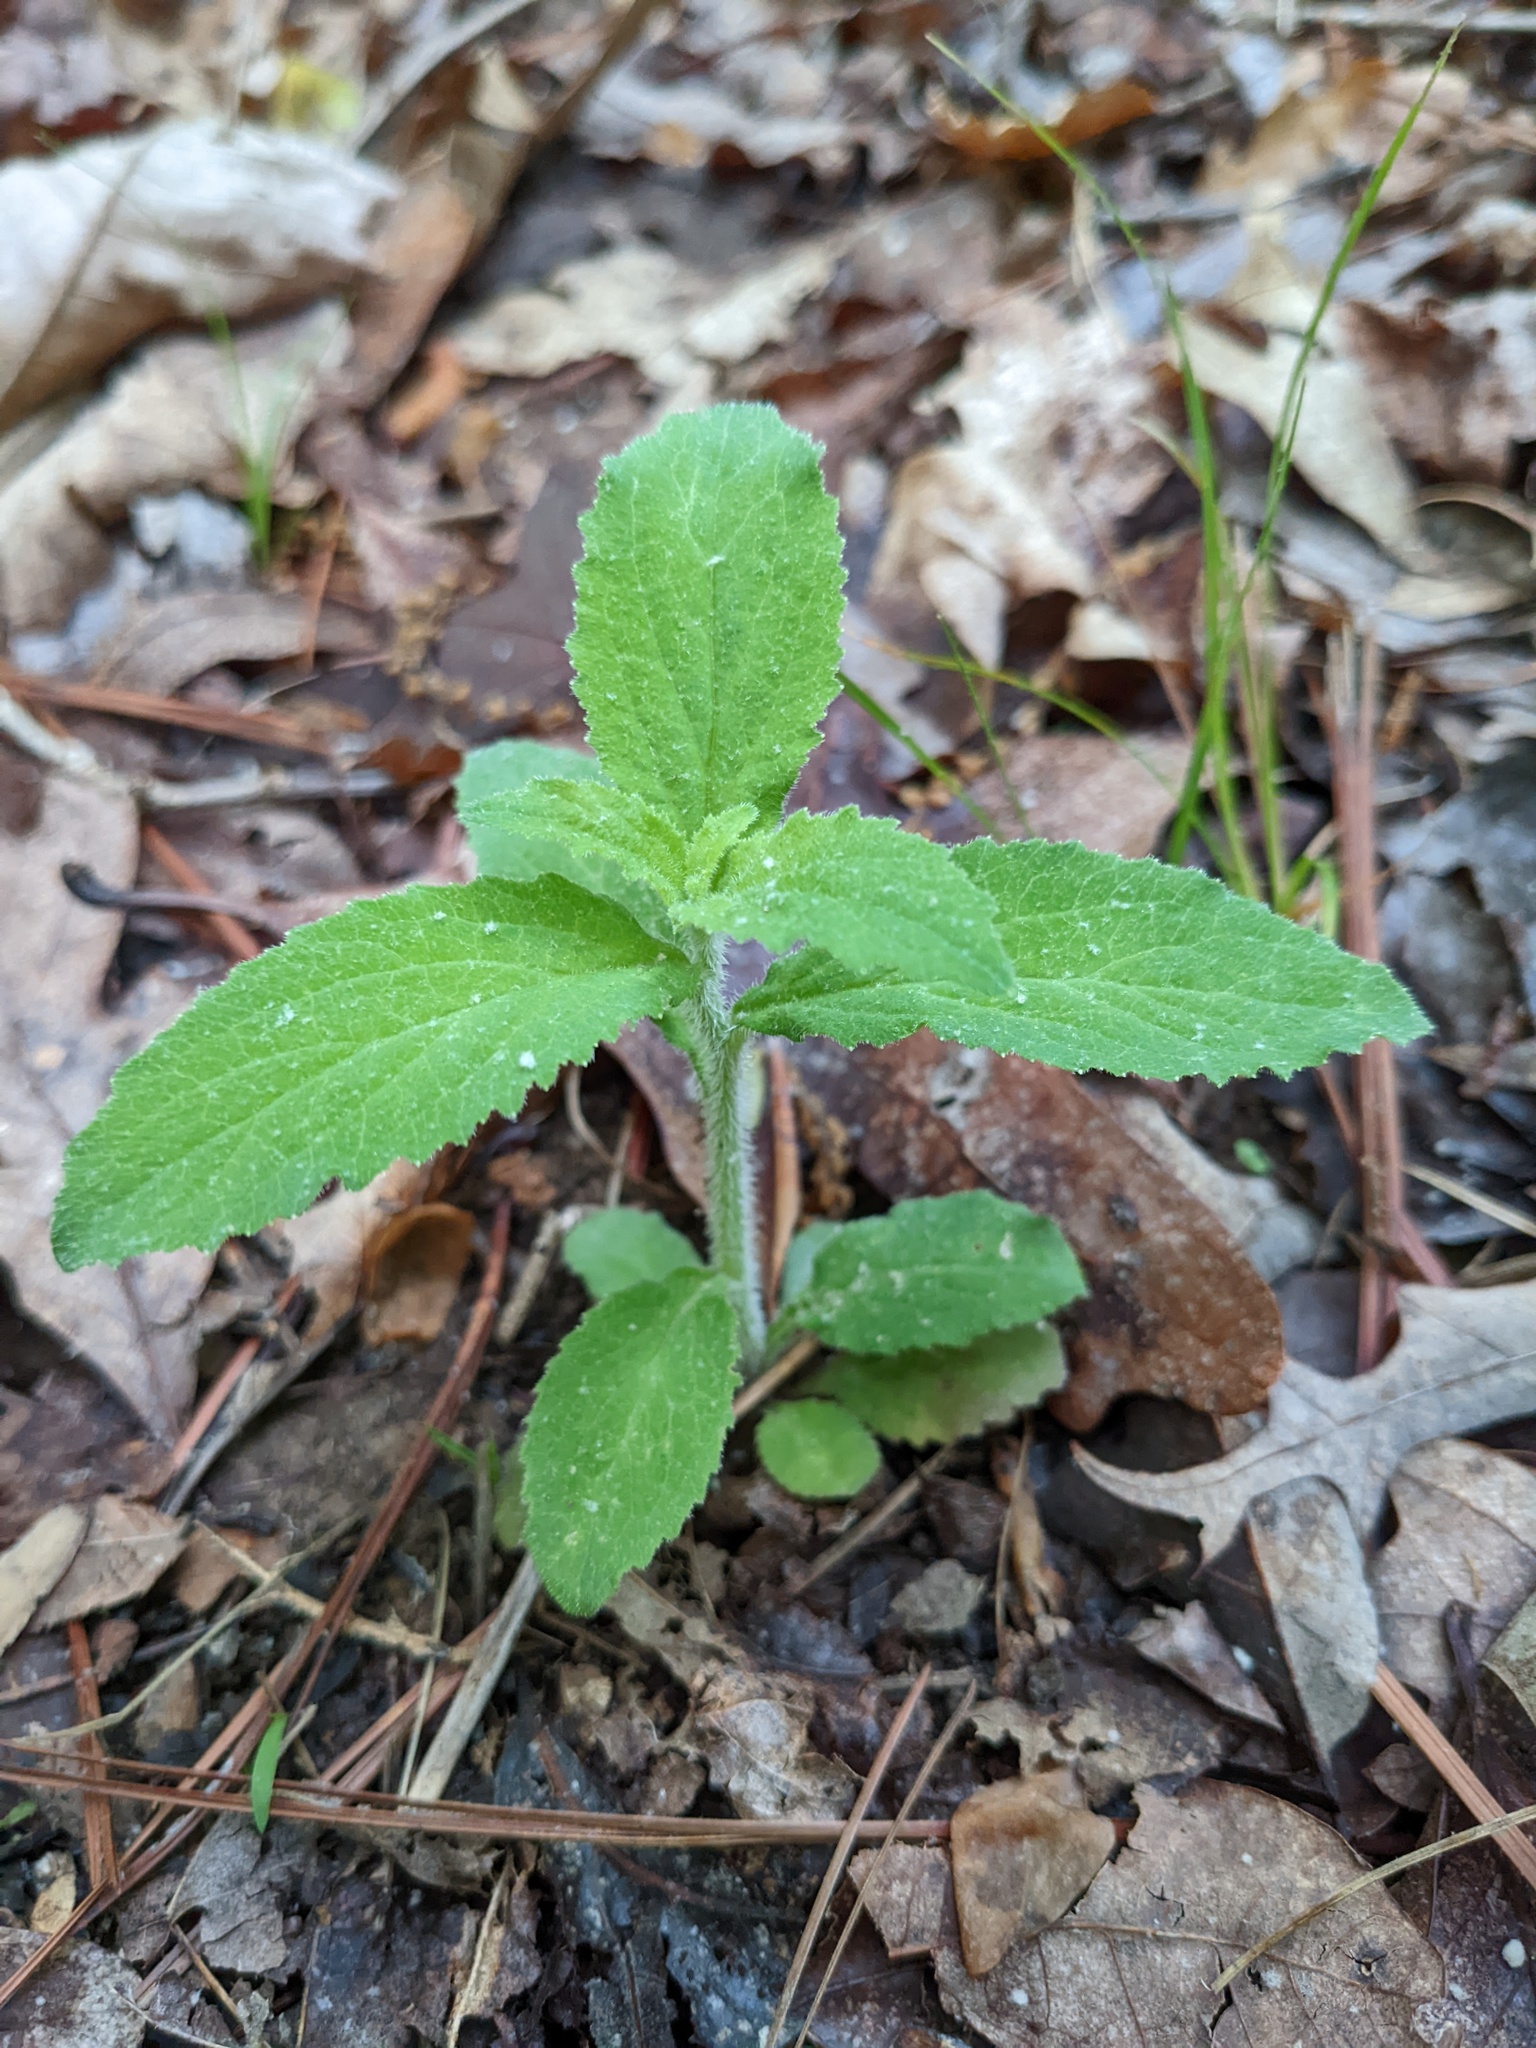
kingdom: Plantae
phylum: Tracheophyta
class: Magnoliopsida
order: Asterales
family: Campanulaceae
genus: Lobelia
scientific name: Lobelia inflata
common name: Indian tobacco
